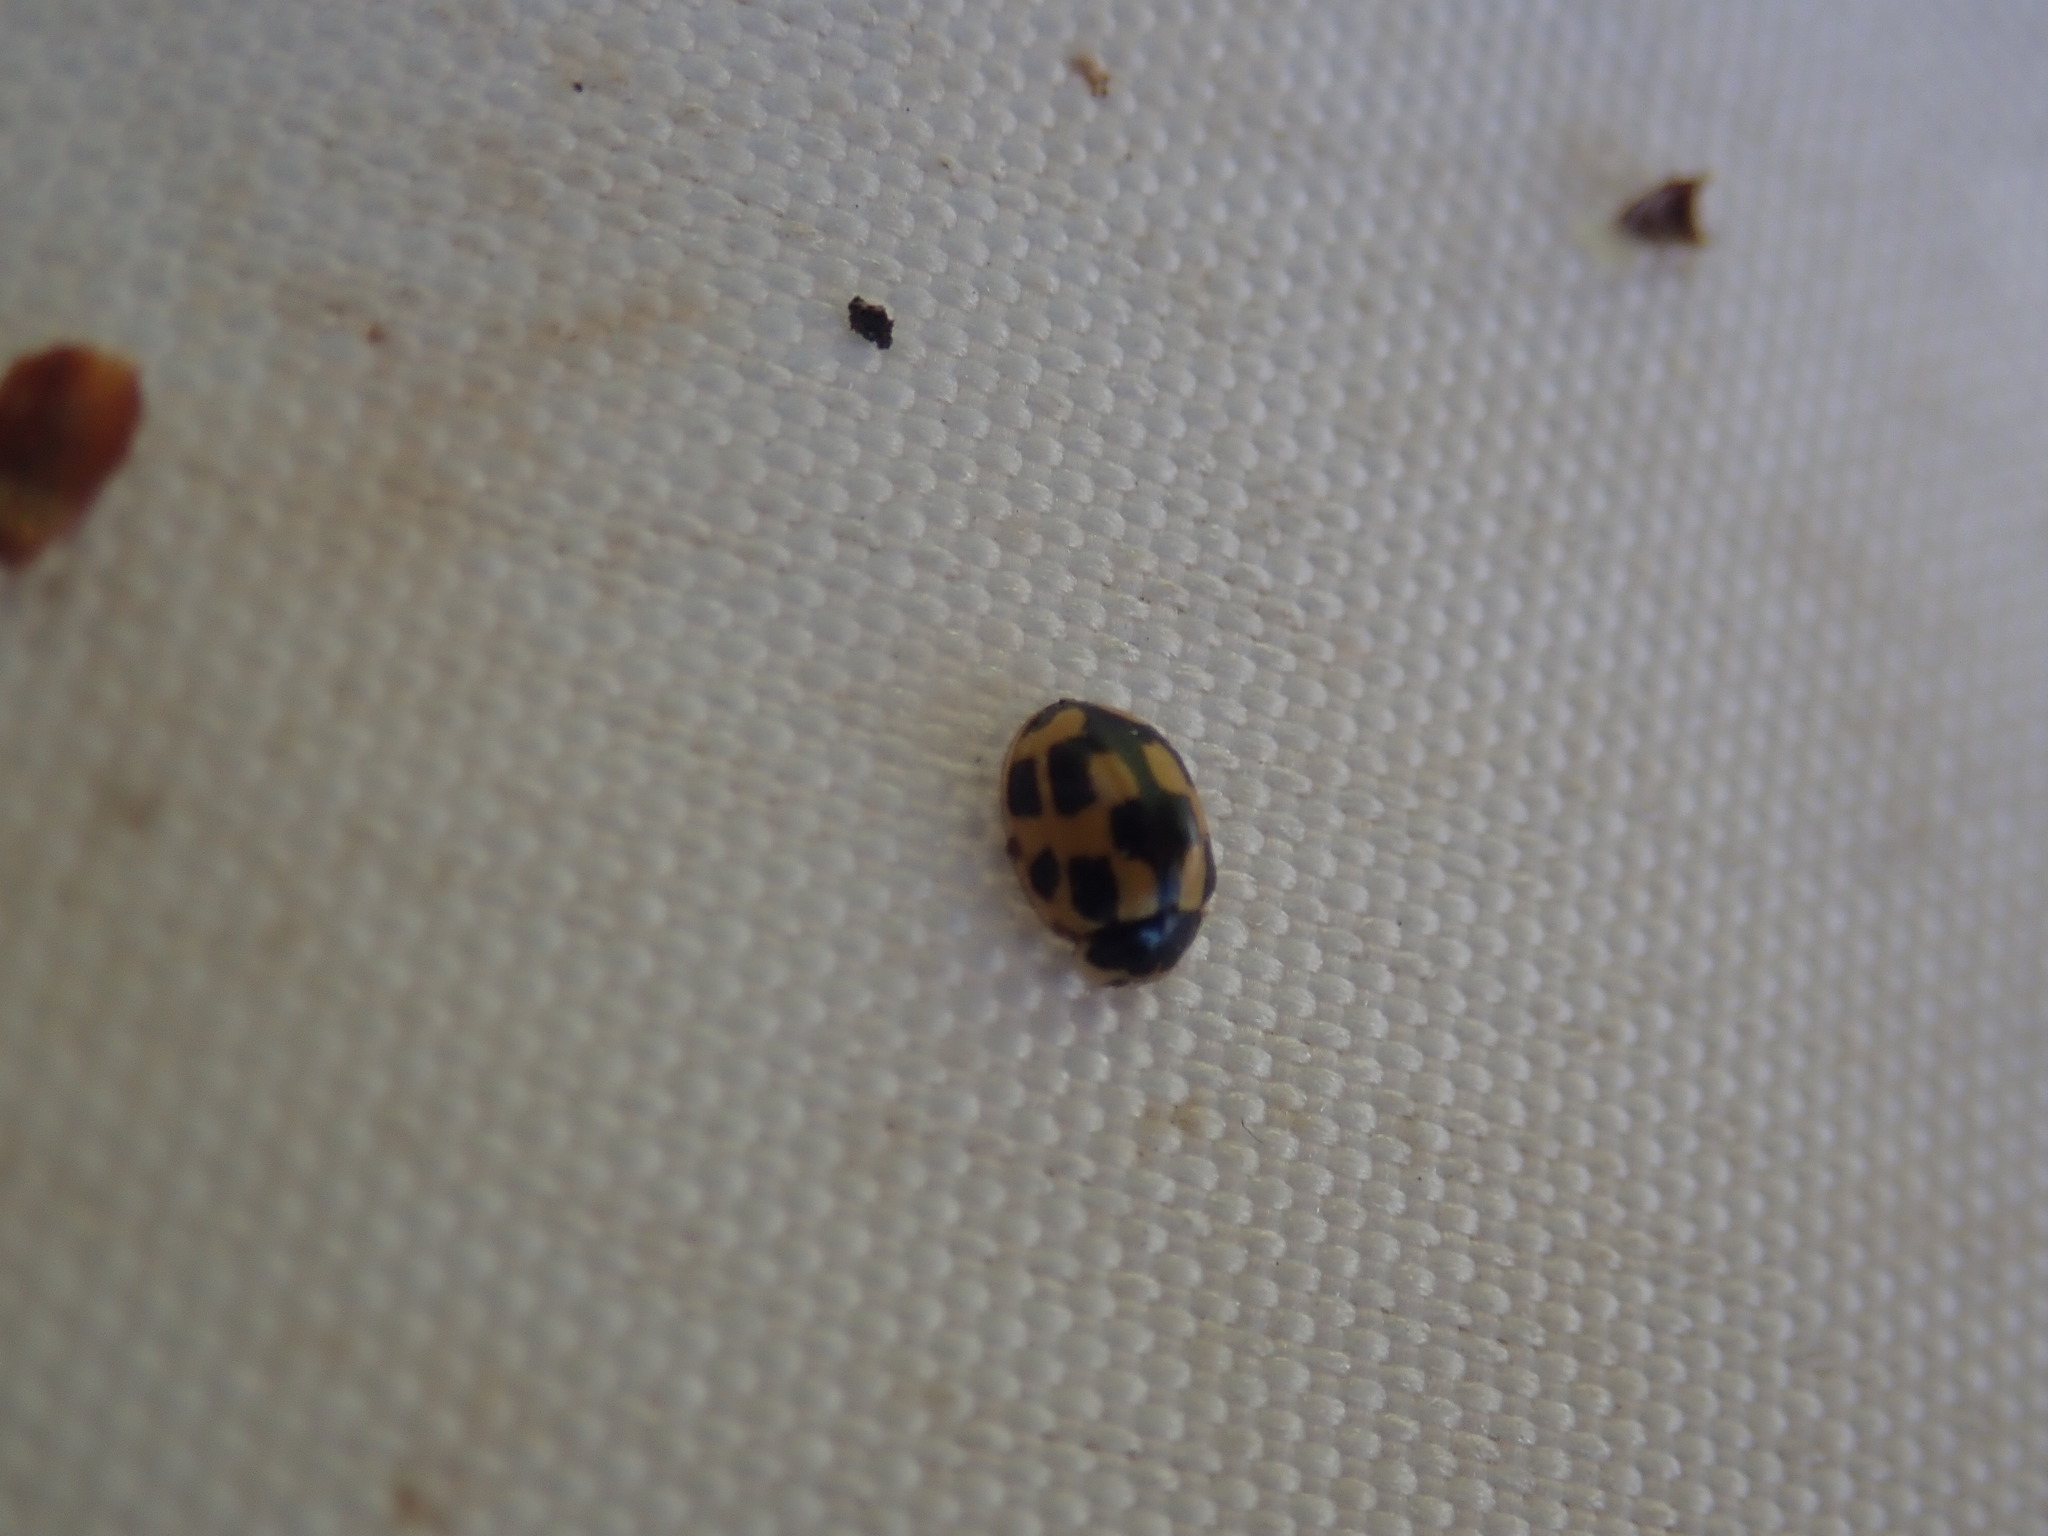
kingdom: Animalia
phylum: Arthropoda
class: Insecta
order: Coleoptera
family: Coccinellidae
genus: Propylaea
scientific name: Propylaea quatuordecimpunctata
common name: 14-spotted ladybird beetle
